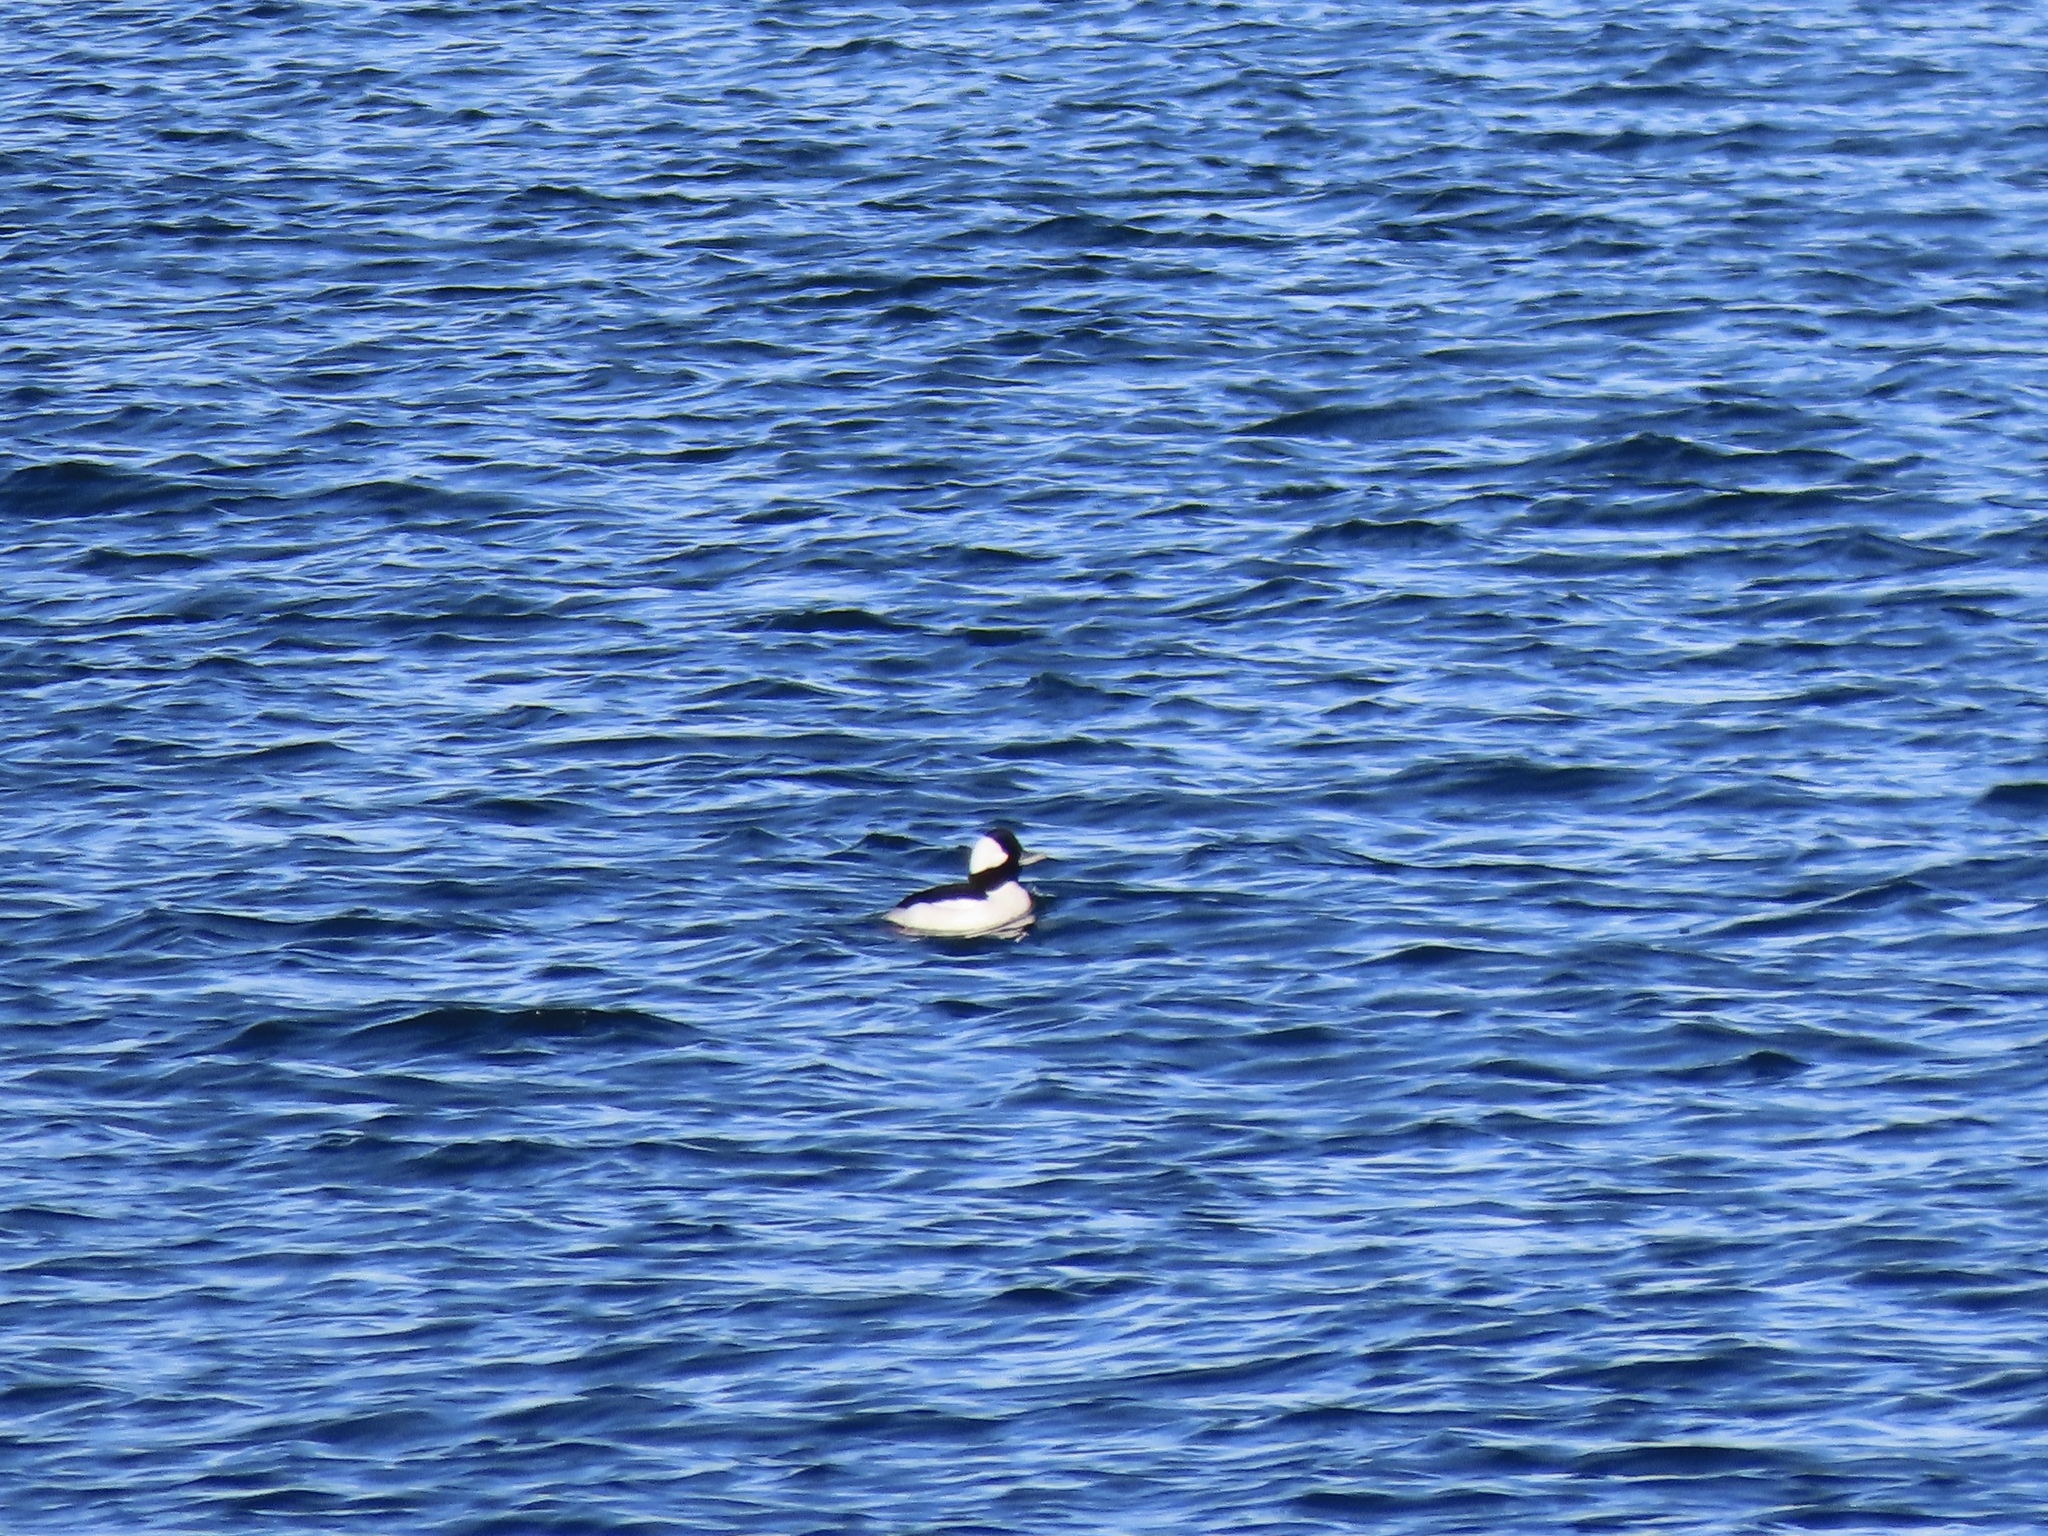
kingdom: Animalia
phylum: Chordata
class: Aves
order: Anseriformes
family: Anatidae
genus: Bucephala
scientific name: Bucephala albeola
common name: Bufflehead
